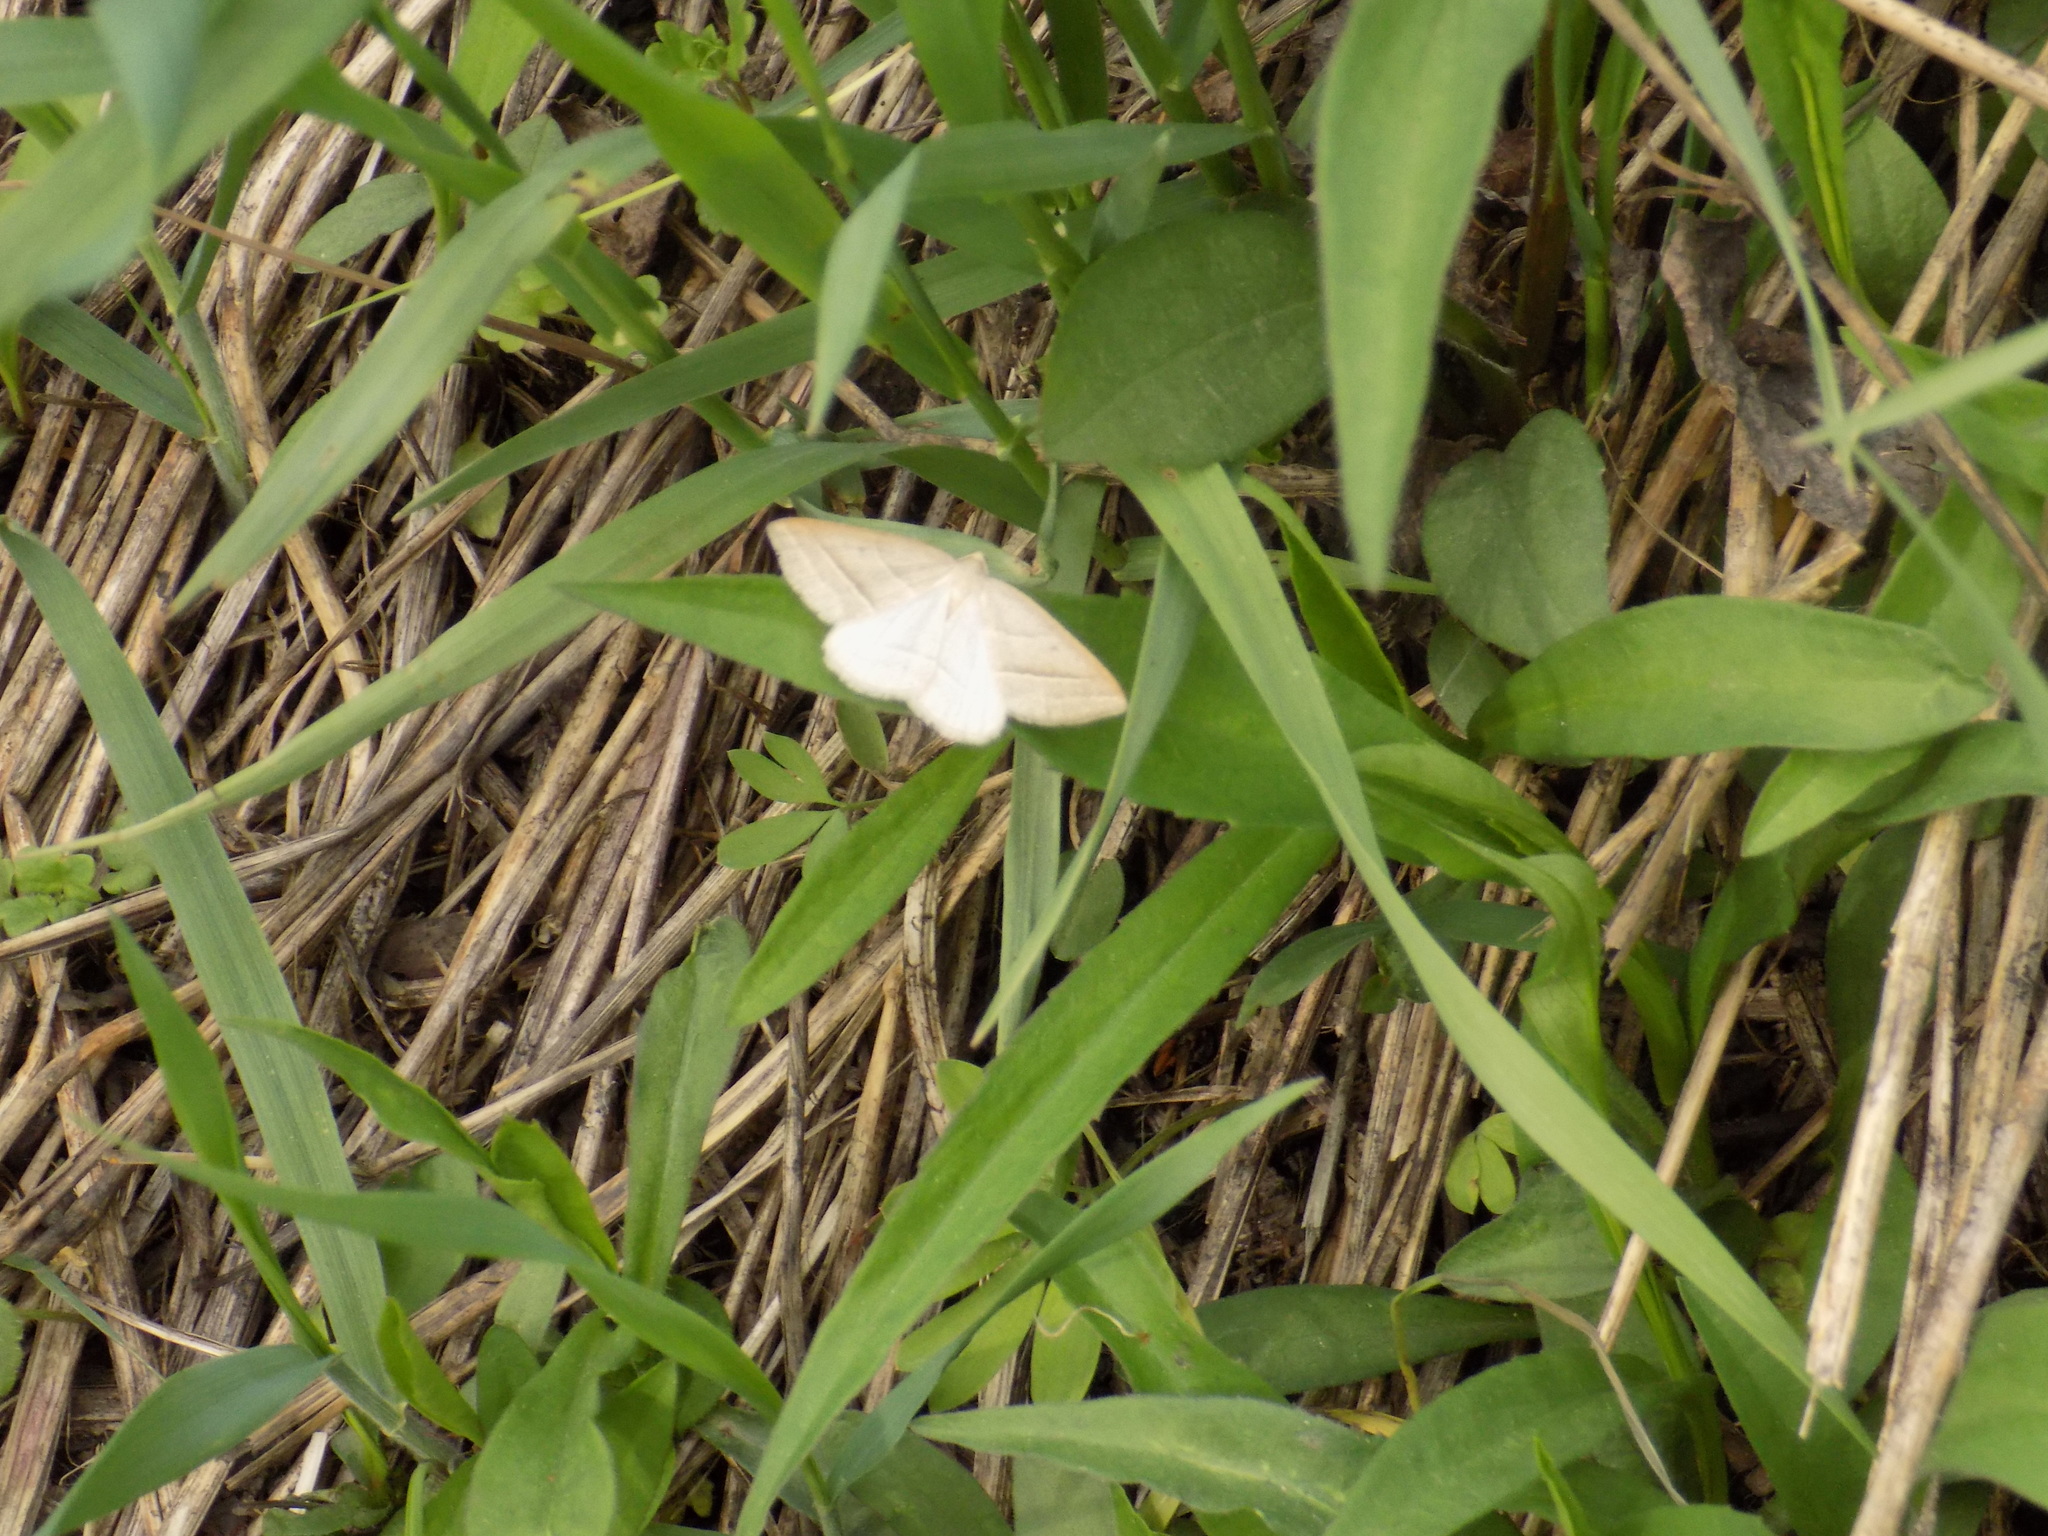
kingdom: Animalia
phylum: Arthropoda
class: Insecta
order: Lepidoptera
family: Pterophoridae
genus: Pterophorus
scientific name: Pterophorus Petrophora chlorosata
